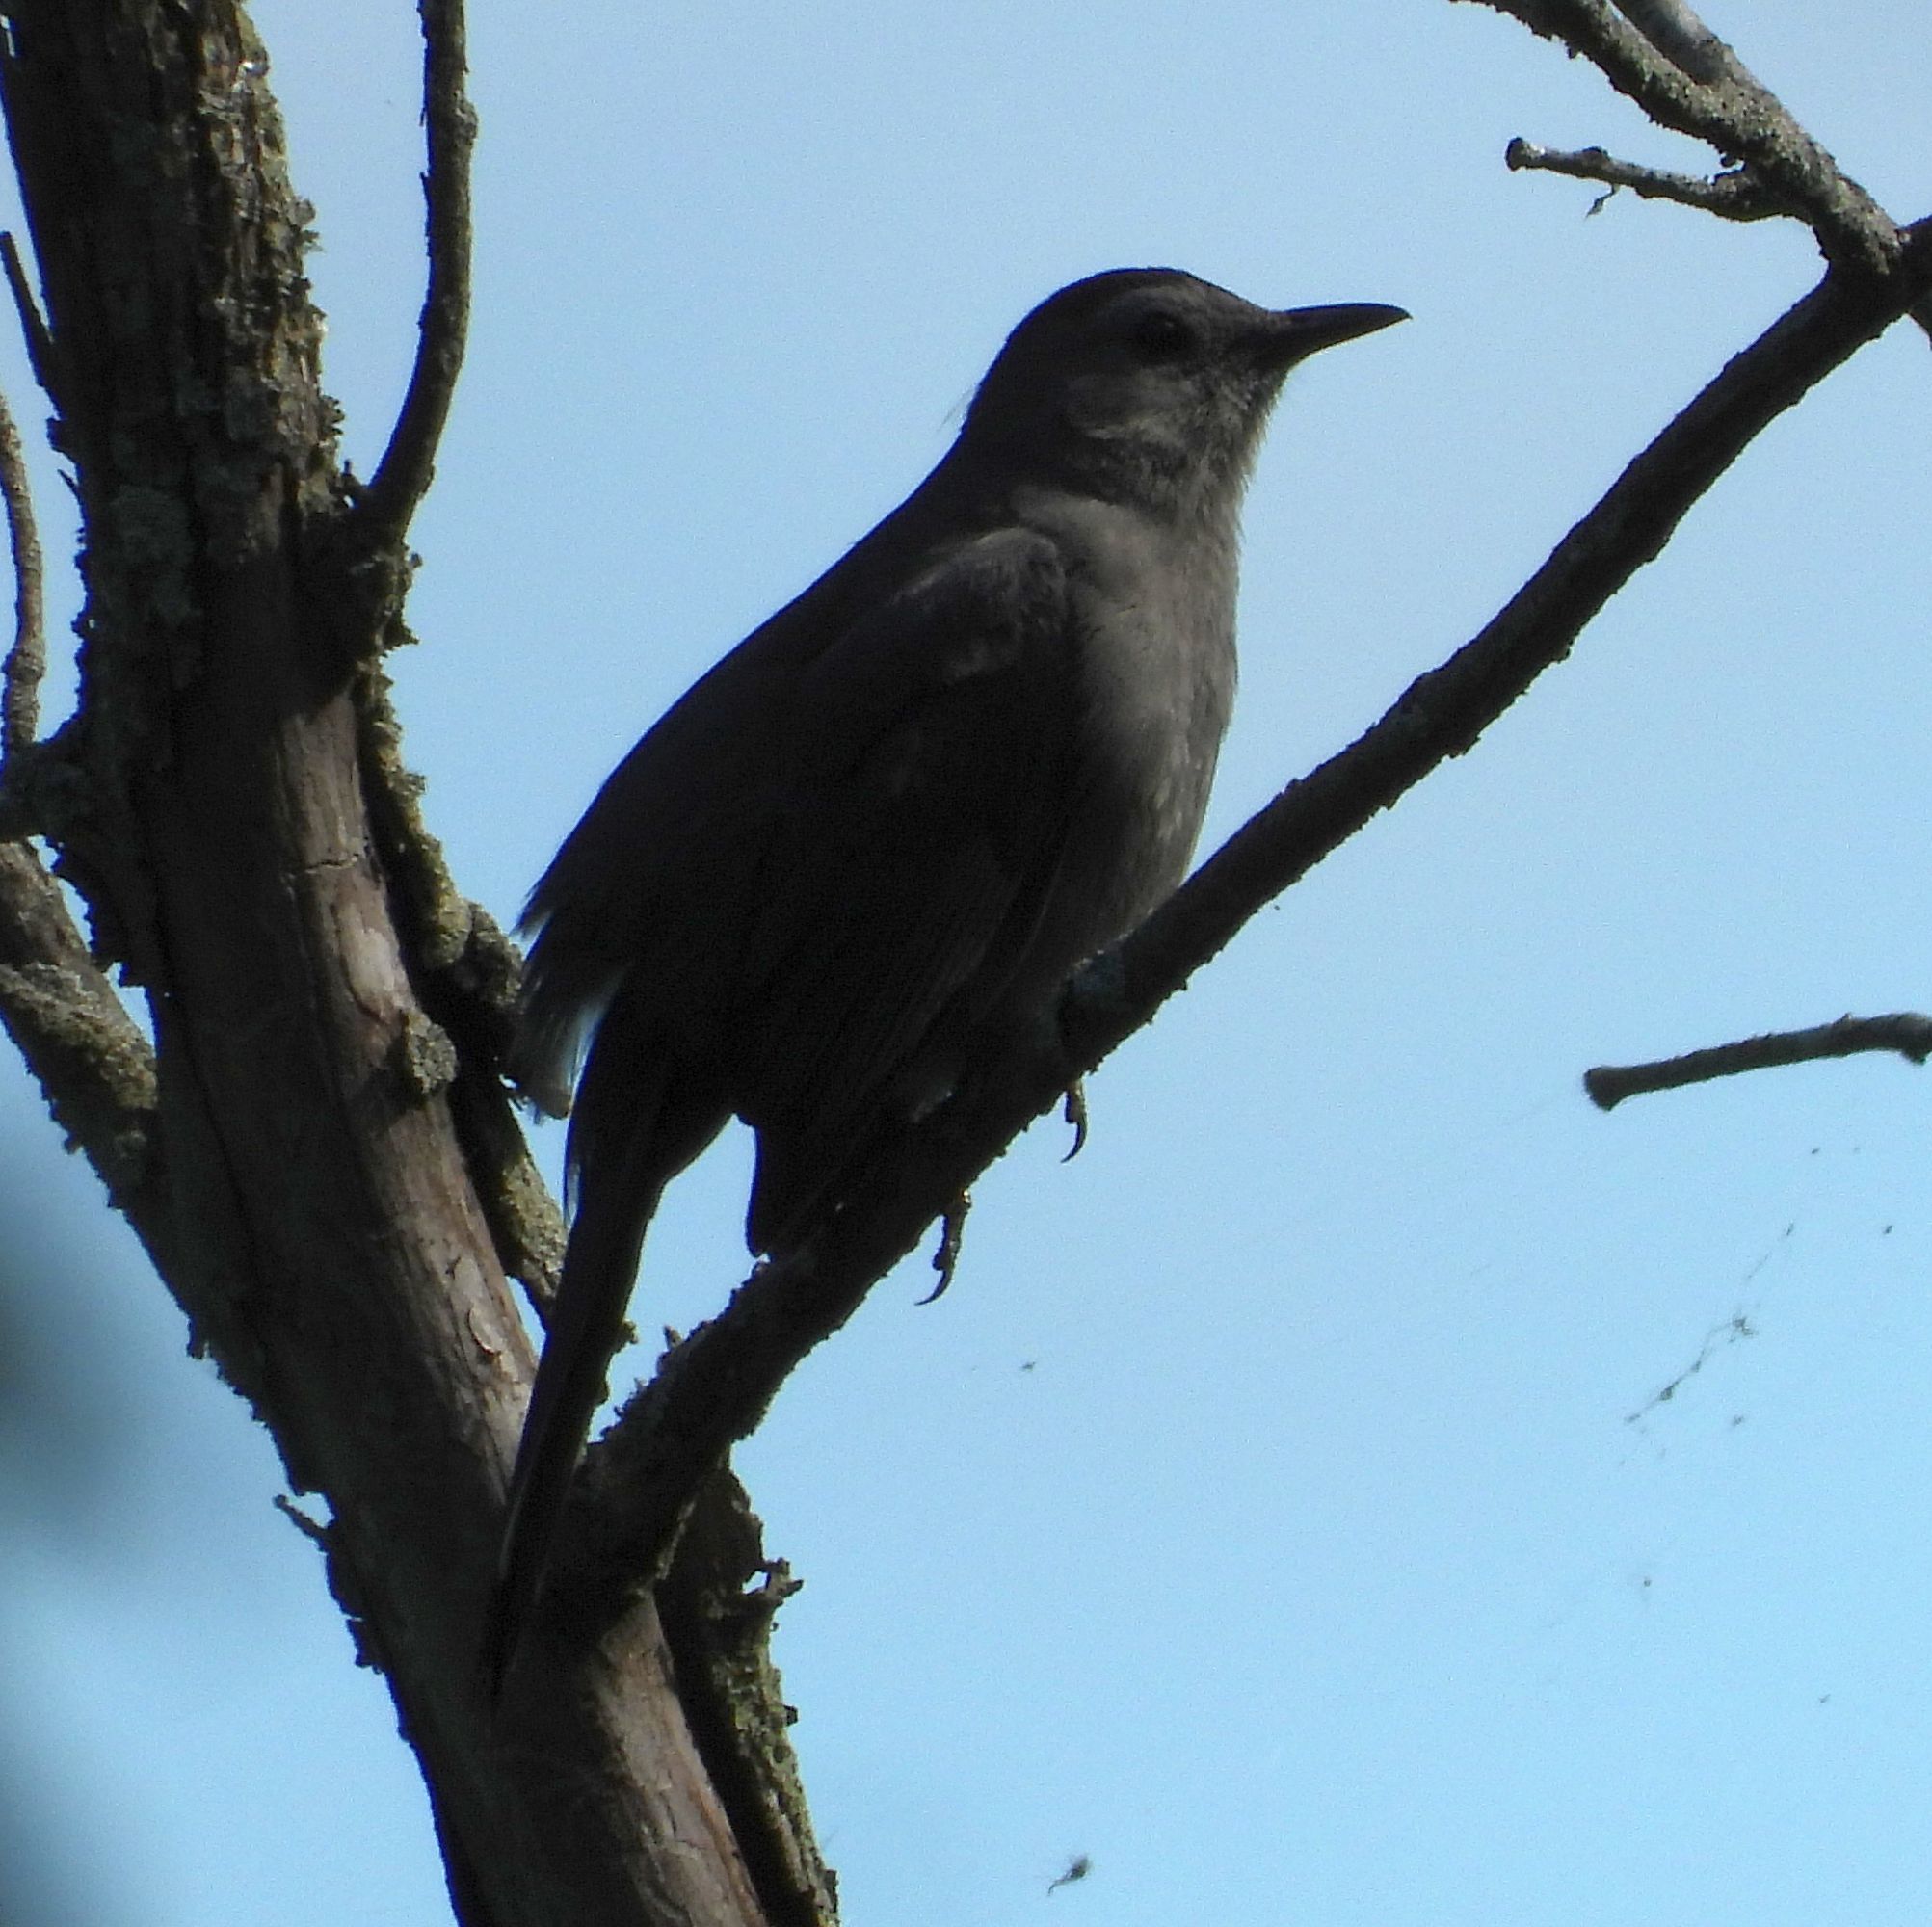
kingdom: Animalia
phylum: Chordata
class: Aves
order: Passeriformes
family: Mimidae
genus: Dumetella
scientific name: Dumetella carolinensis
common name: Gray catbird
